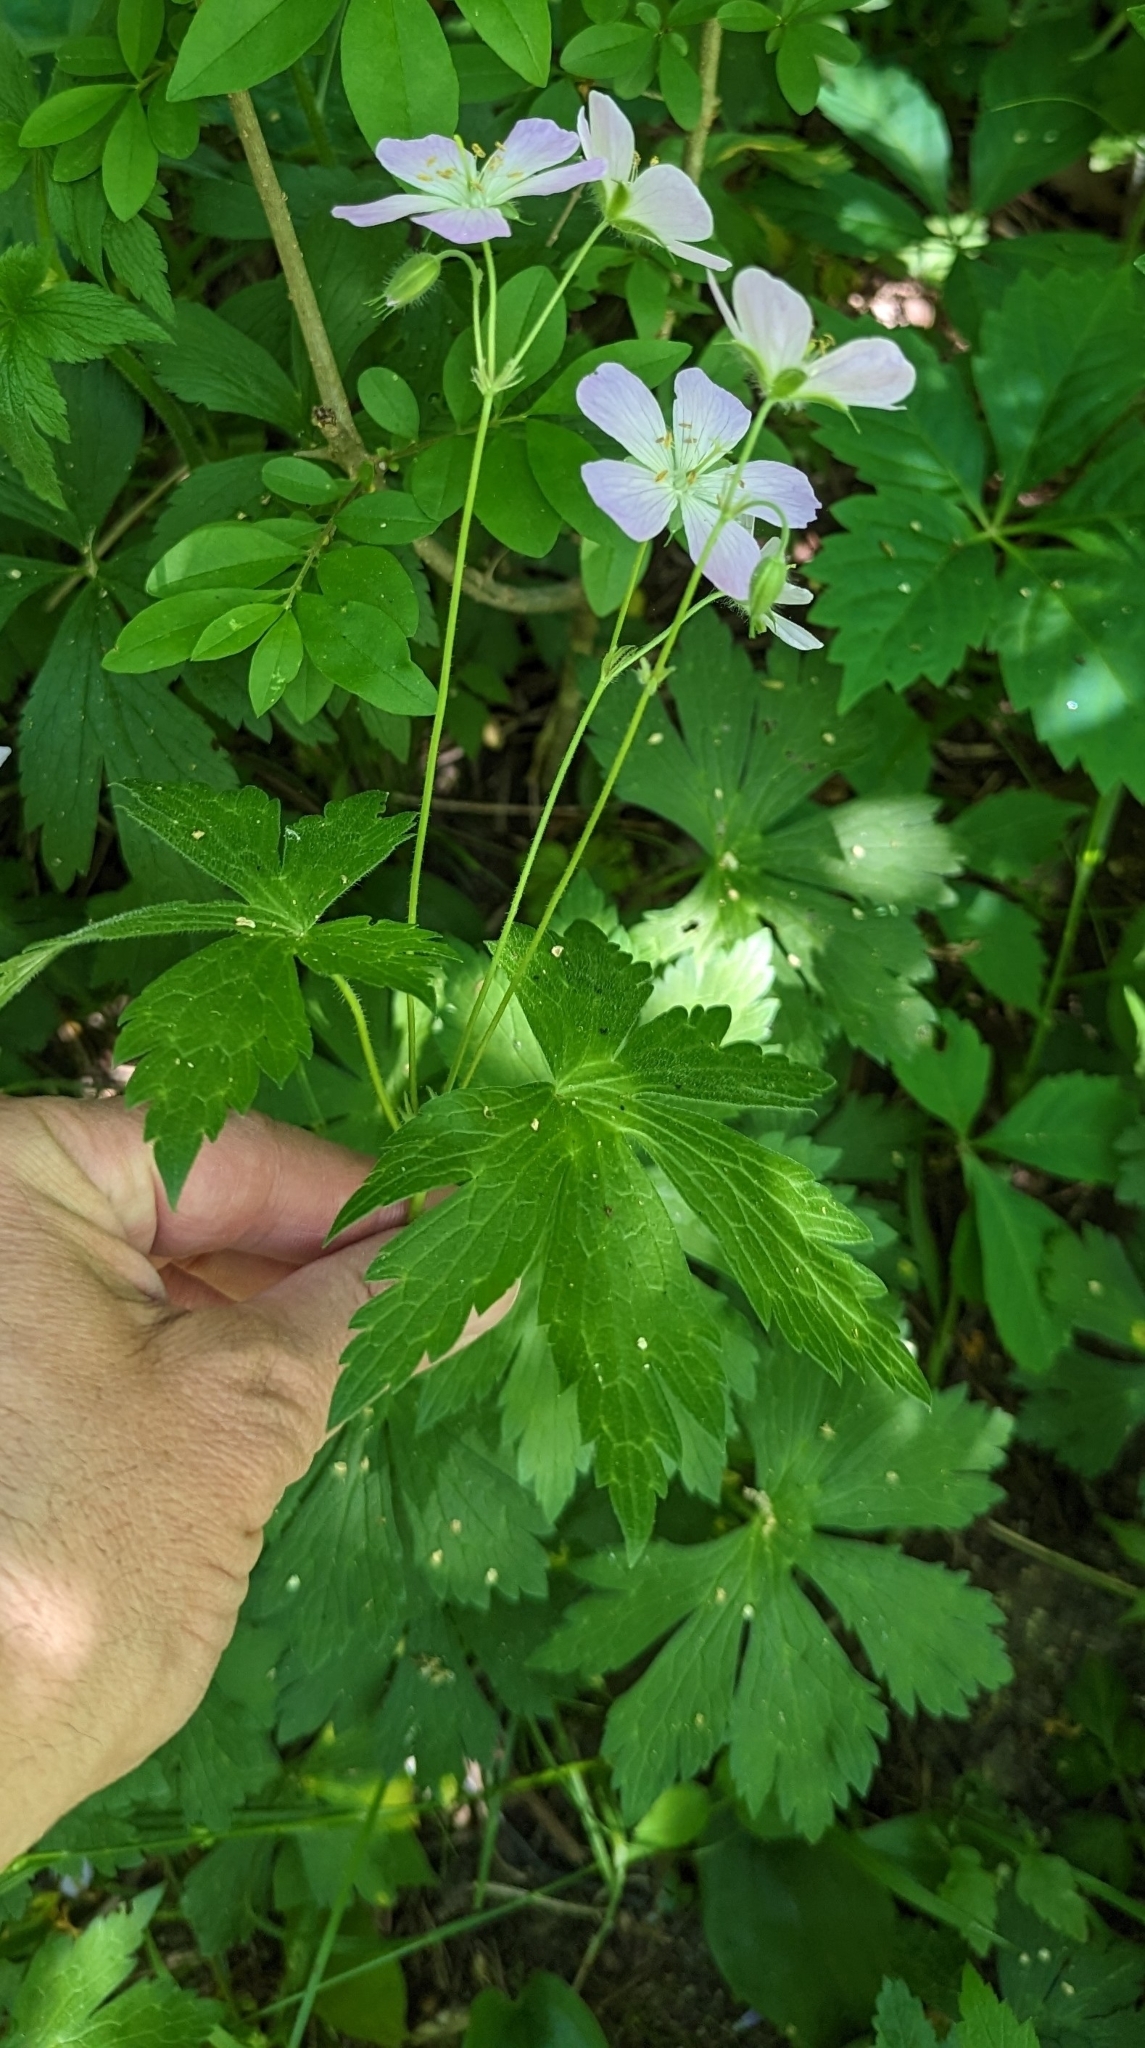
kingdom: Plantae
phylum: Tracheophyta
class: Magnoliopsida
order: Geraniales
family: Geraniaceae
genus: Geranium
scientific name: Geranium maculatum
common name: Spotted geranium
